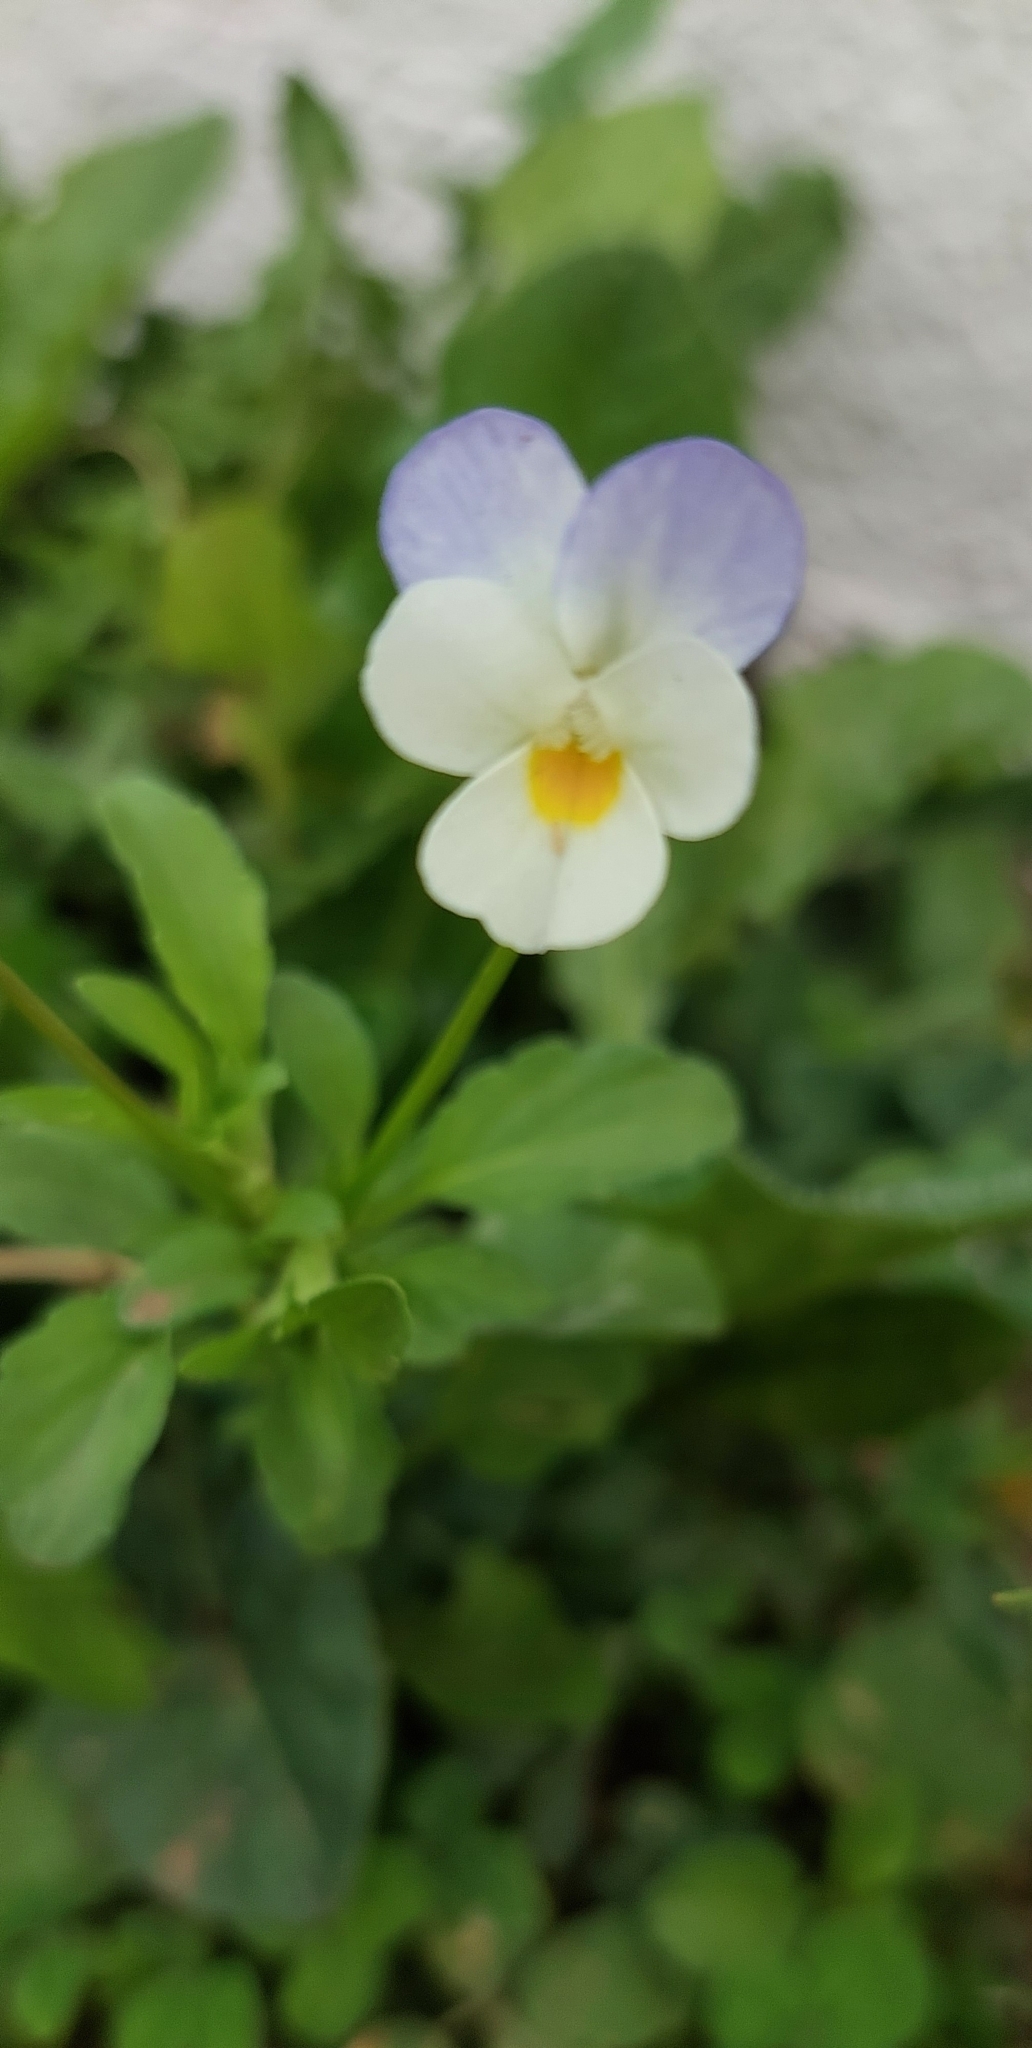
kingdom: Plantae
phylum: Tracheophyta
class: Magnoliopsida
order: Malpighiales
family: Violaceae
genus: Viola
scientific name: Viola tricolor
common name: Pansy
